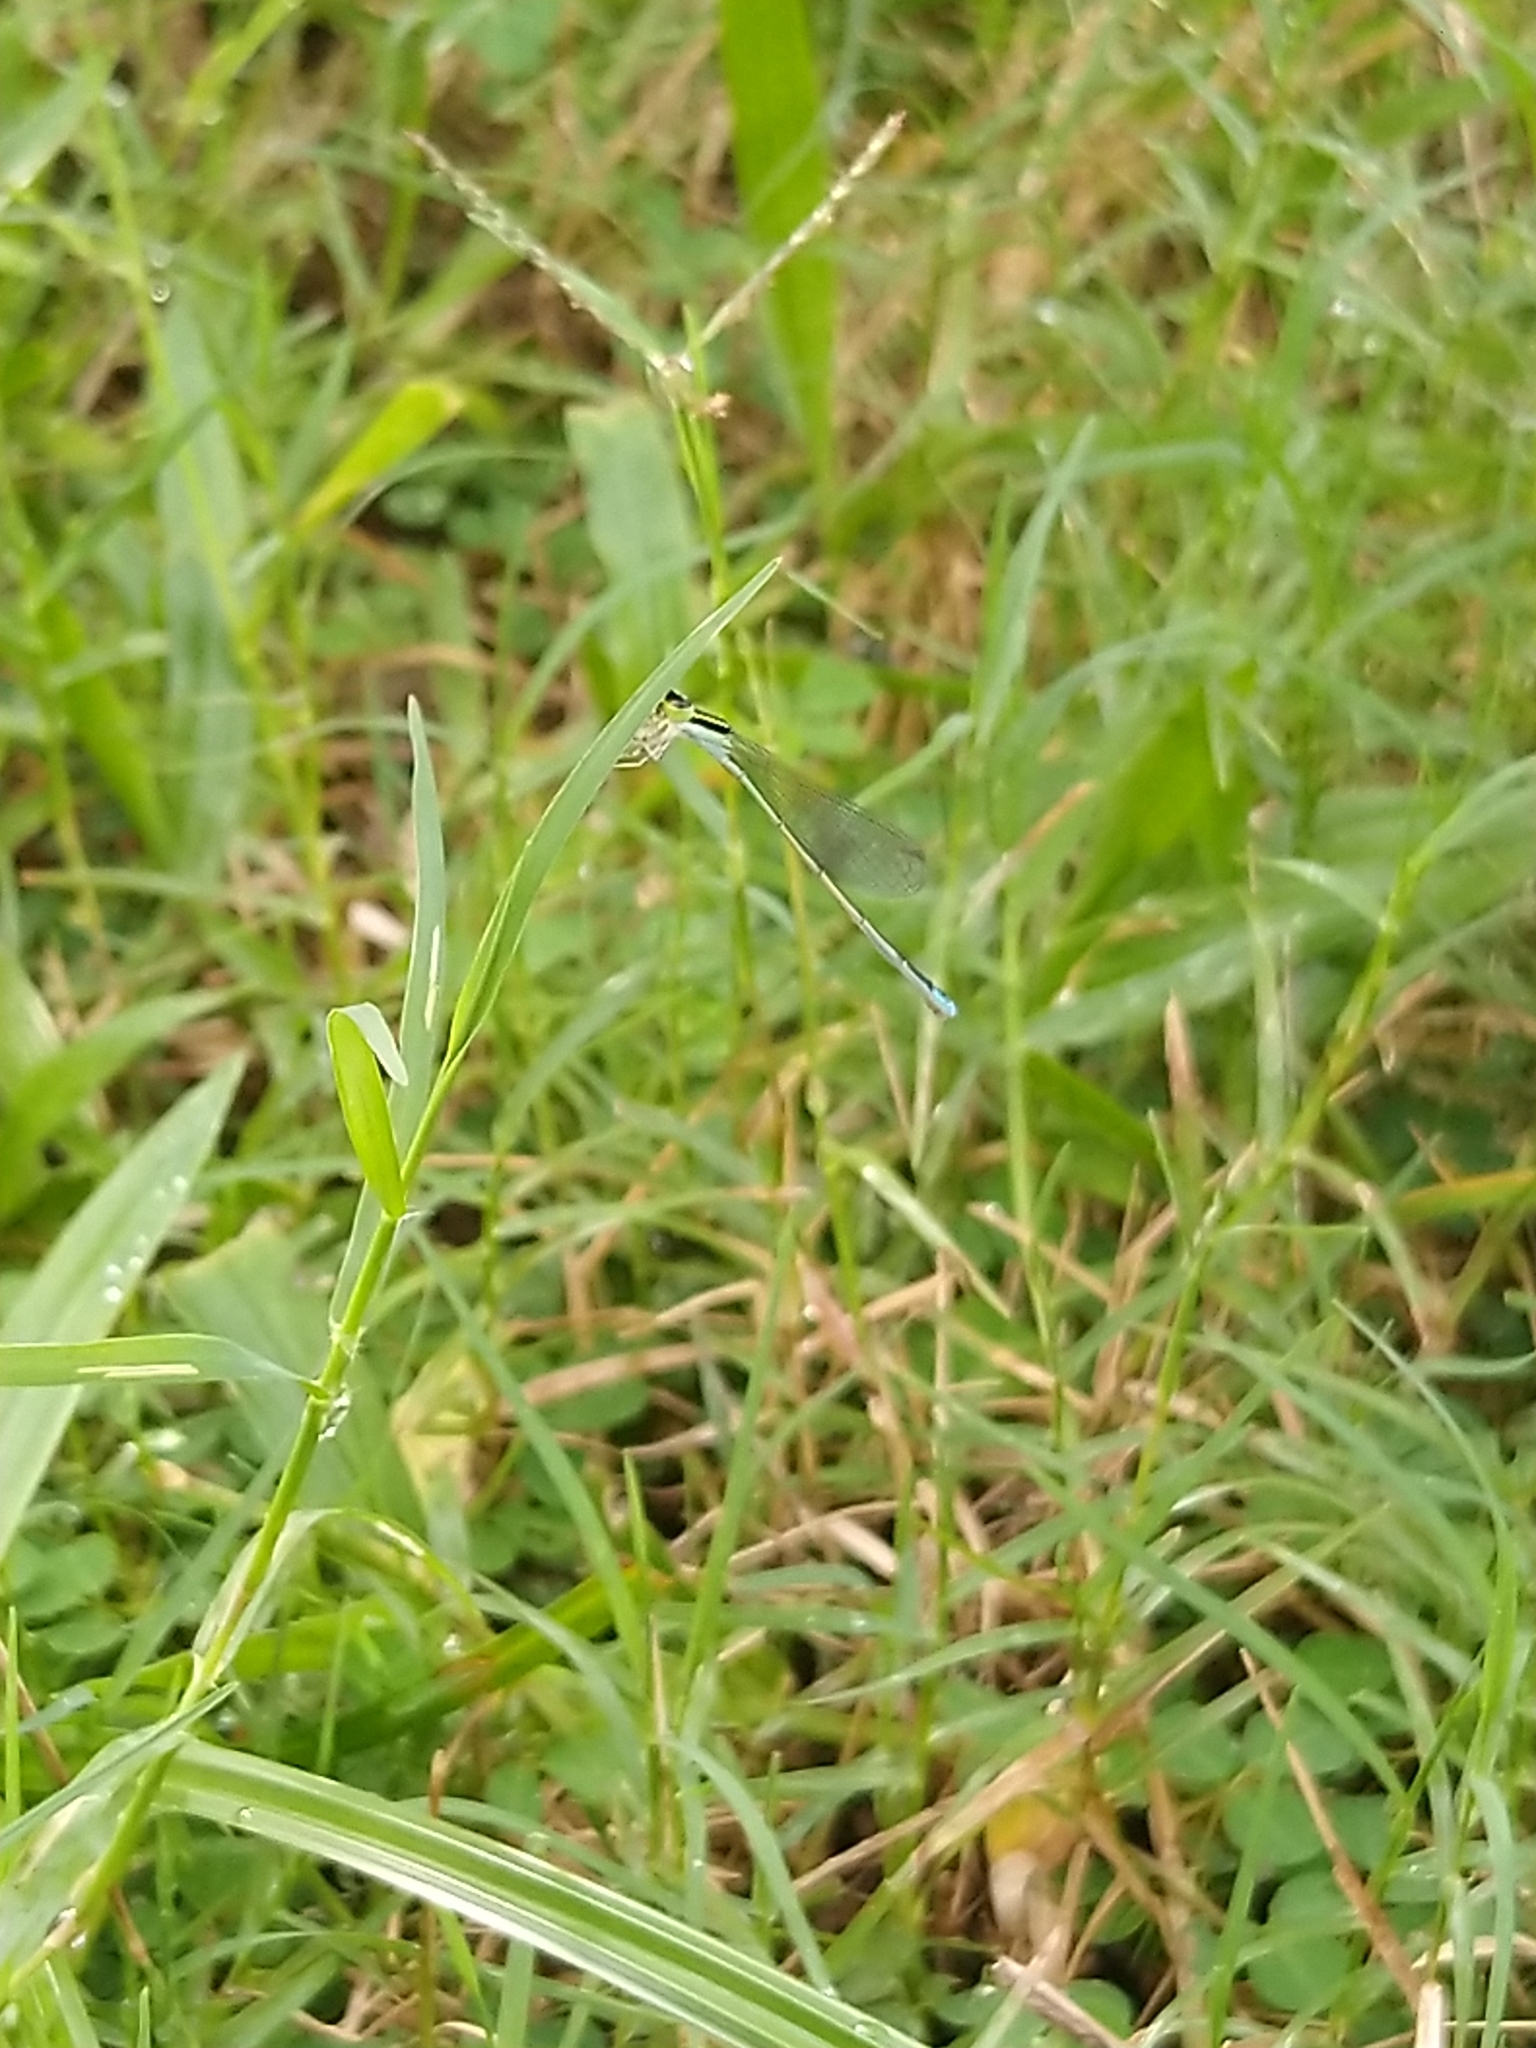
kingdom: Animalia
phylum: Arthropoda
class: Insecta
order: Odonata
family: Coenagrionidae
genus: Ischnura
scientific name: Ischnura rubilio
